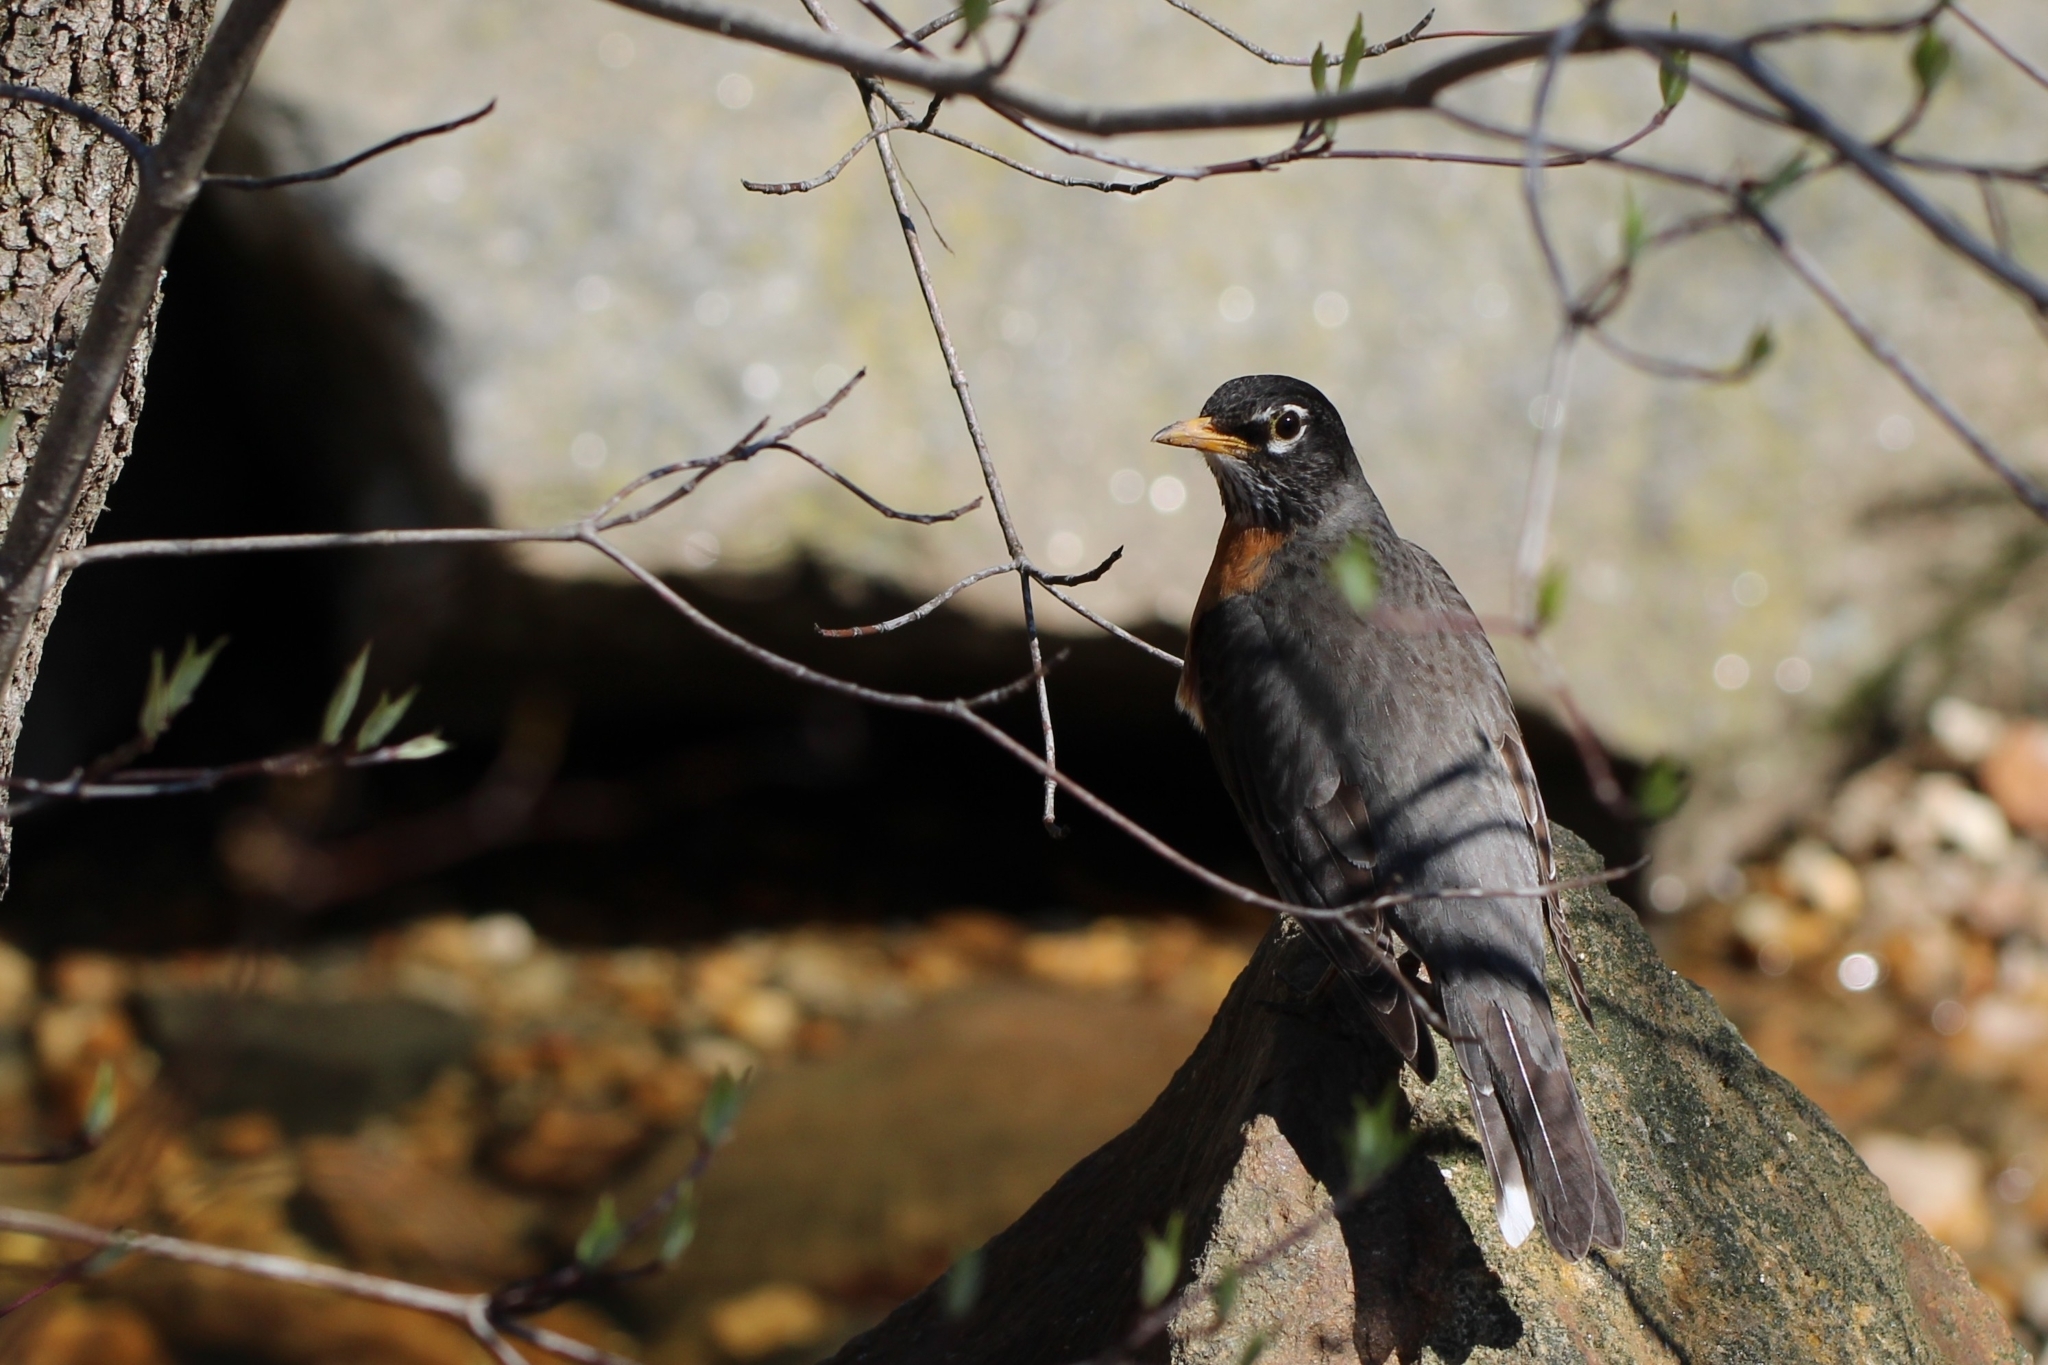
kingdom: Animalia
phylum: Chordata
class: Aves
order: Passeriformes
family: Turdidae
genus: Turdus
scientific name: Turdus migratorius
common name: American robin
